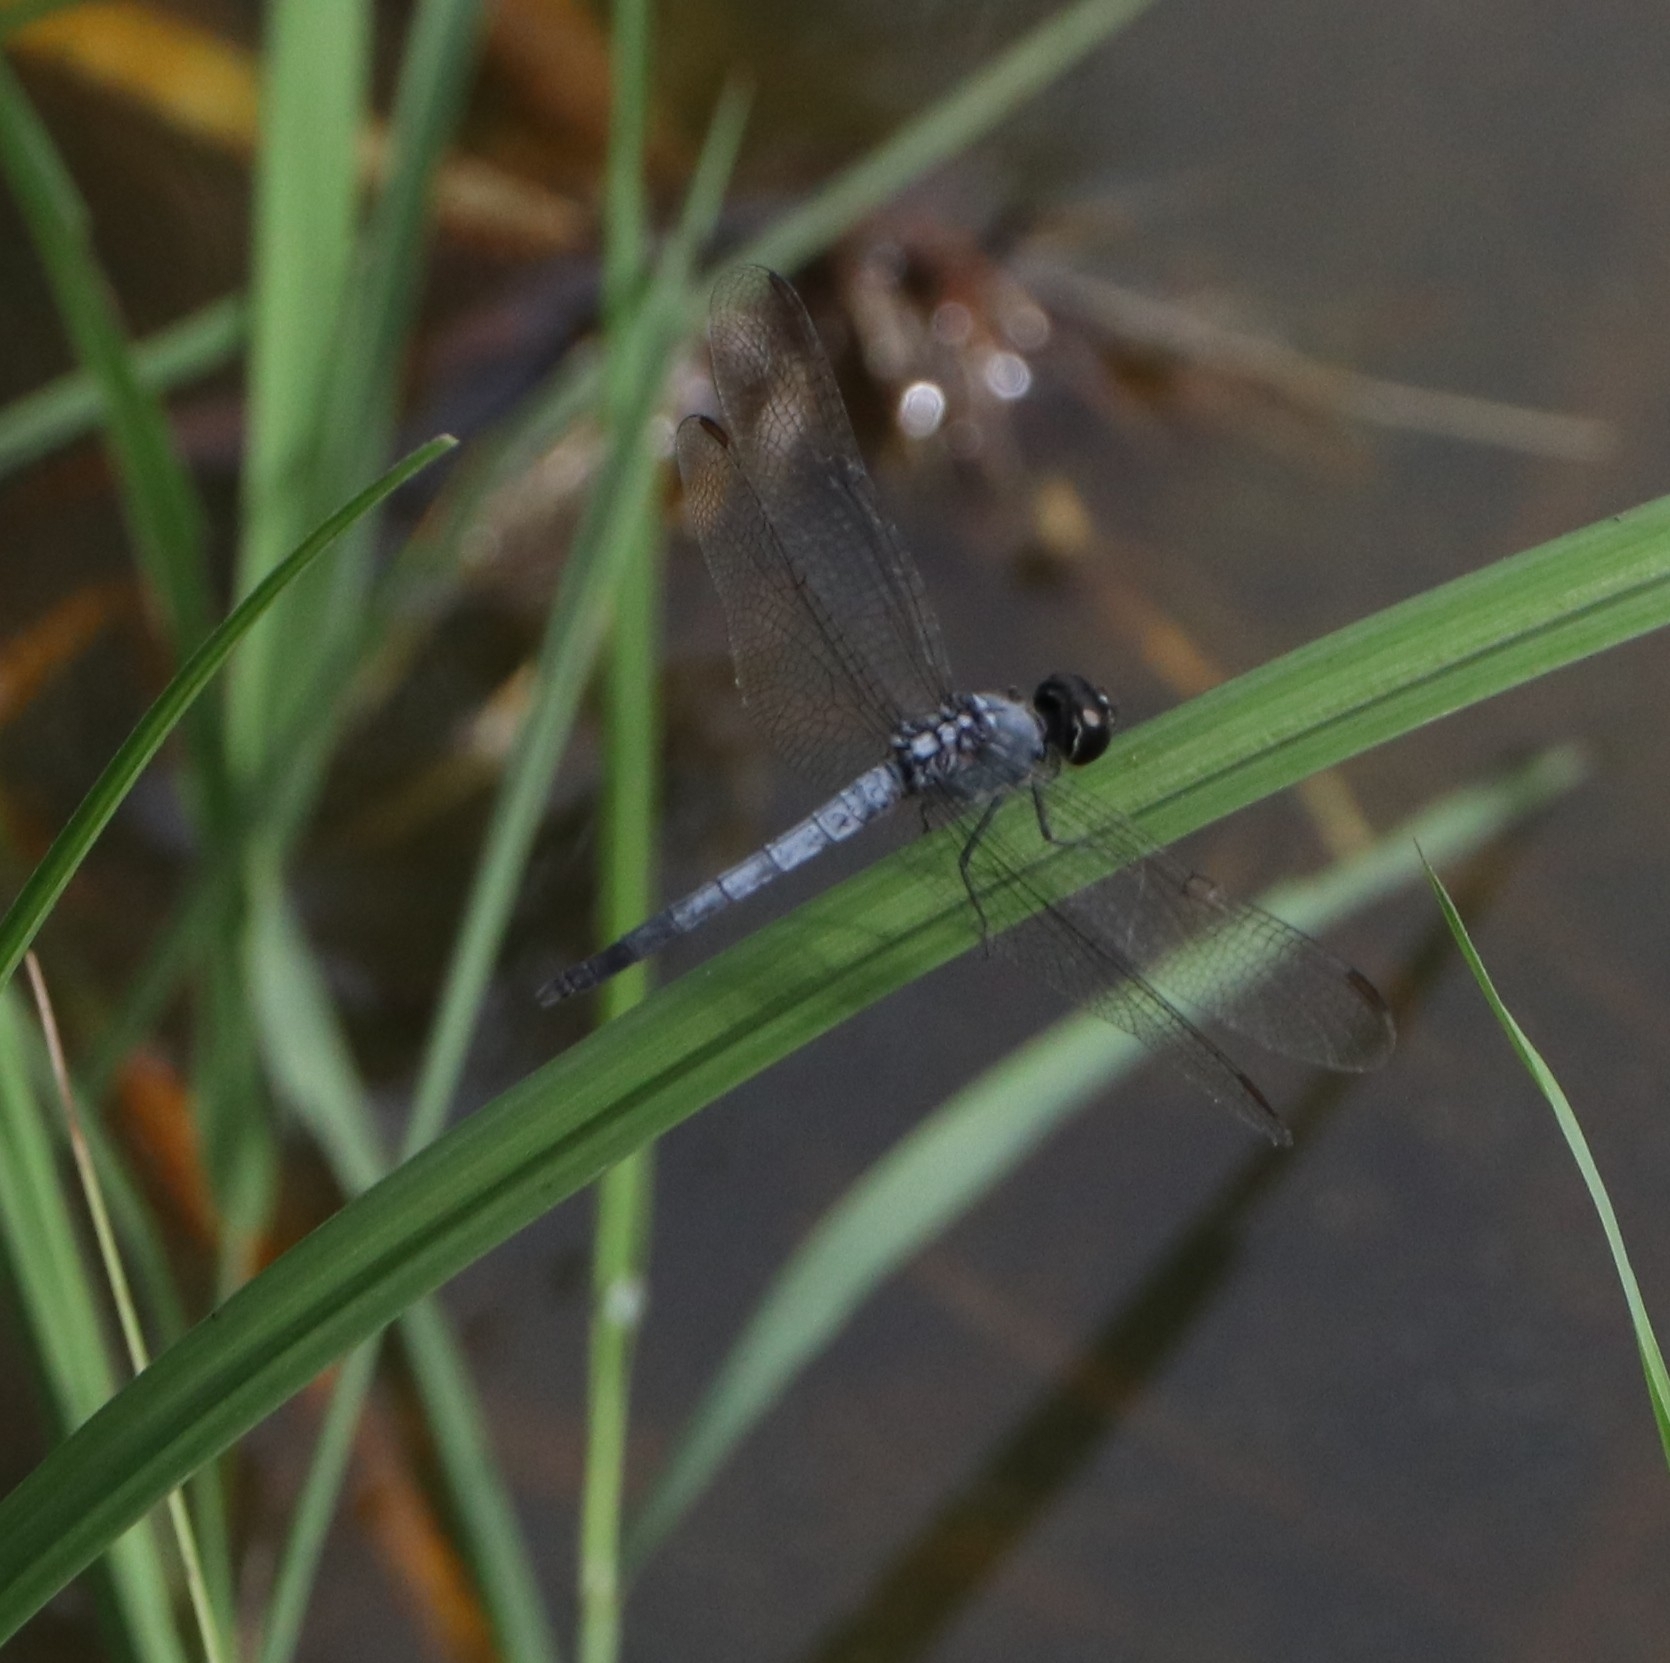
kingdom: Animalia
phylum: Arthropoda
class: Insecta
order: Odonata
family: Libellulidae
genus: Brachydiplax
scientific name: Brachydiplax sobrina
